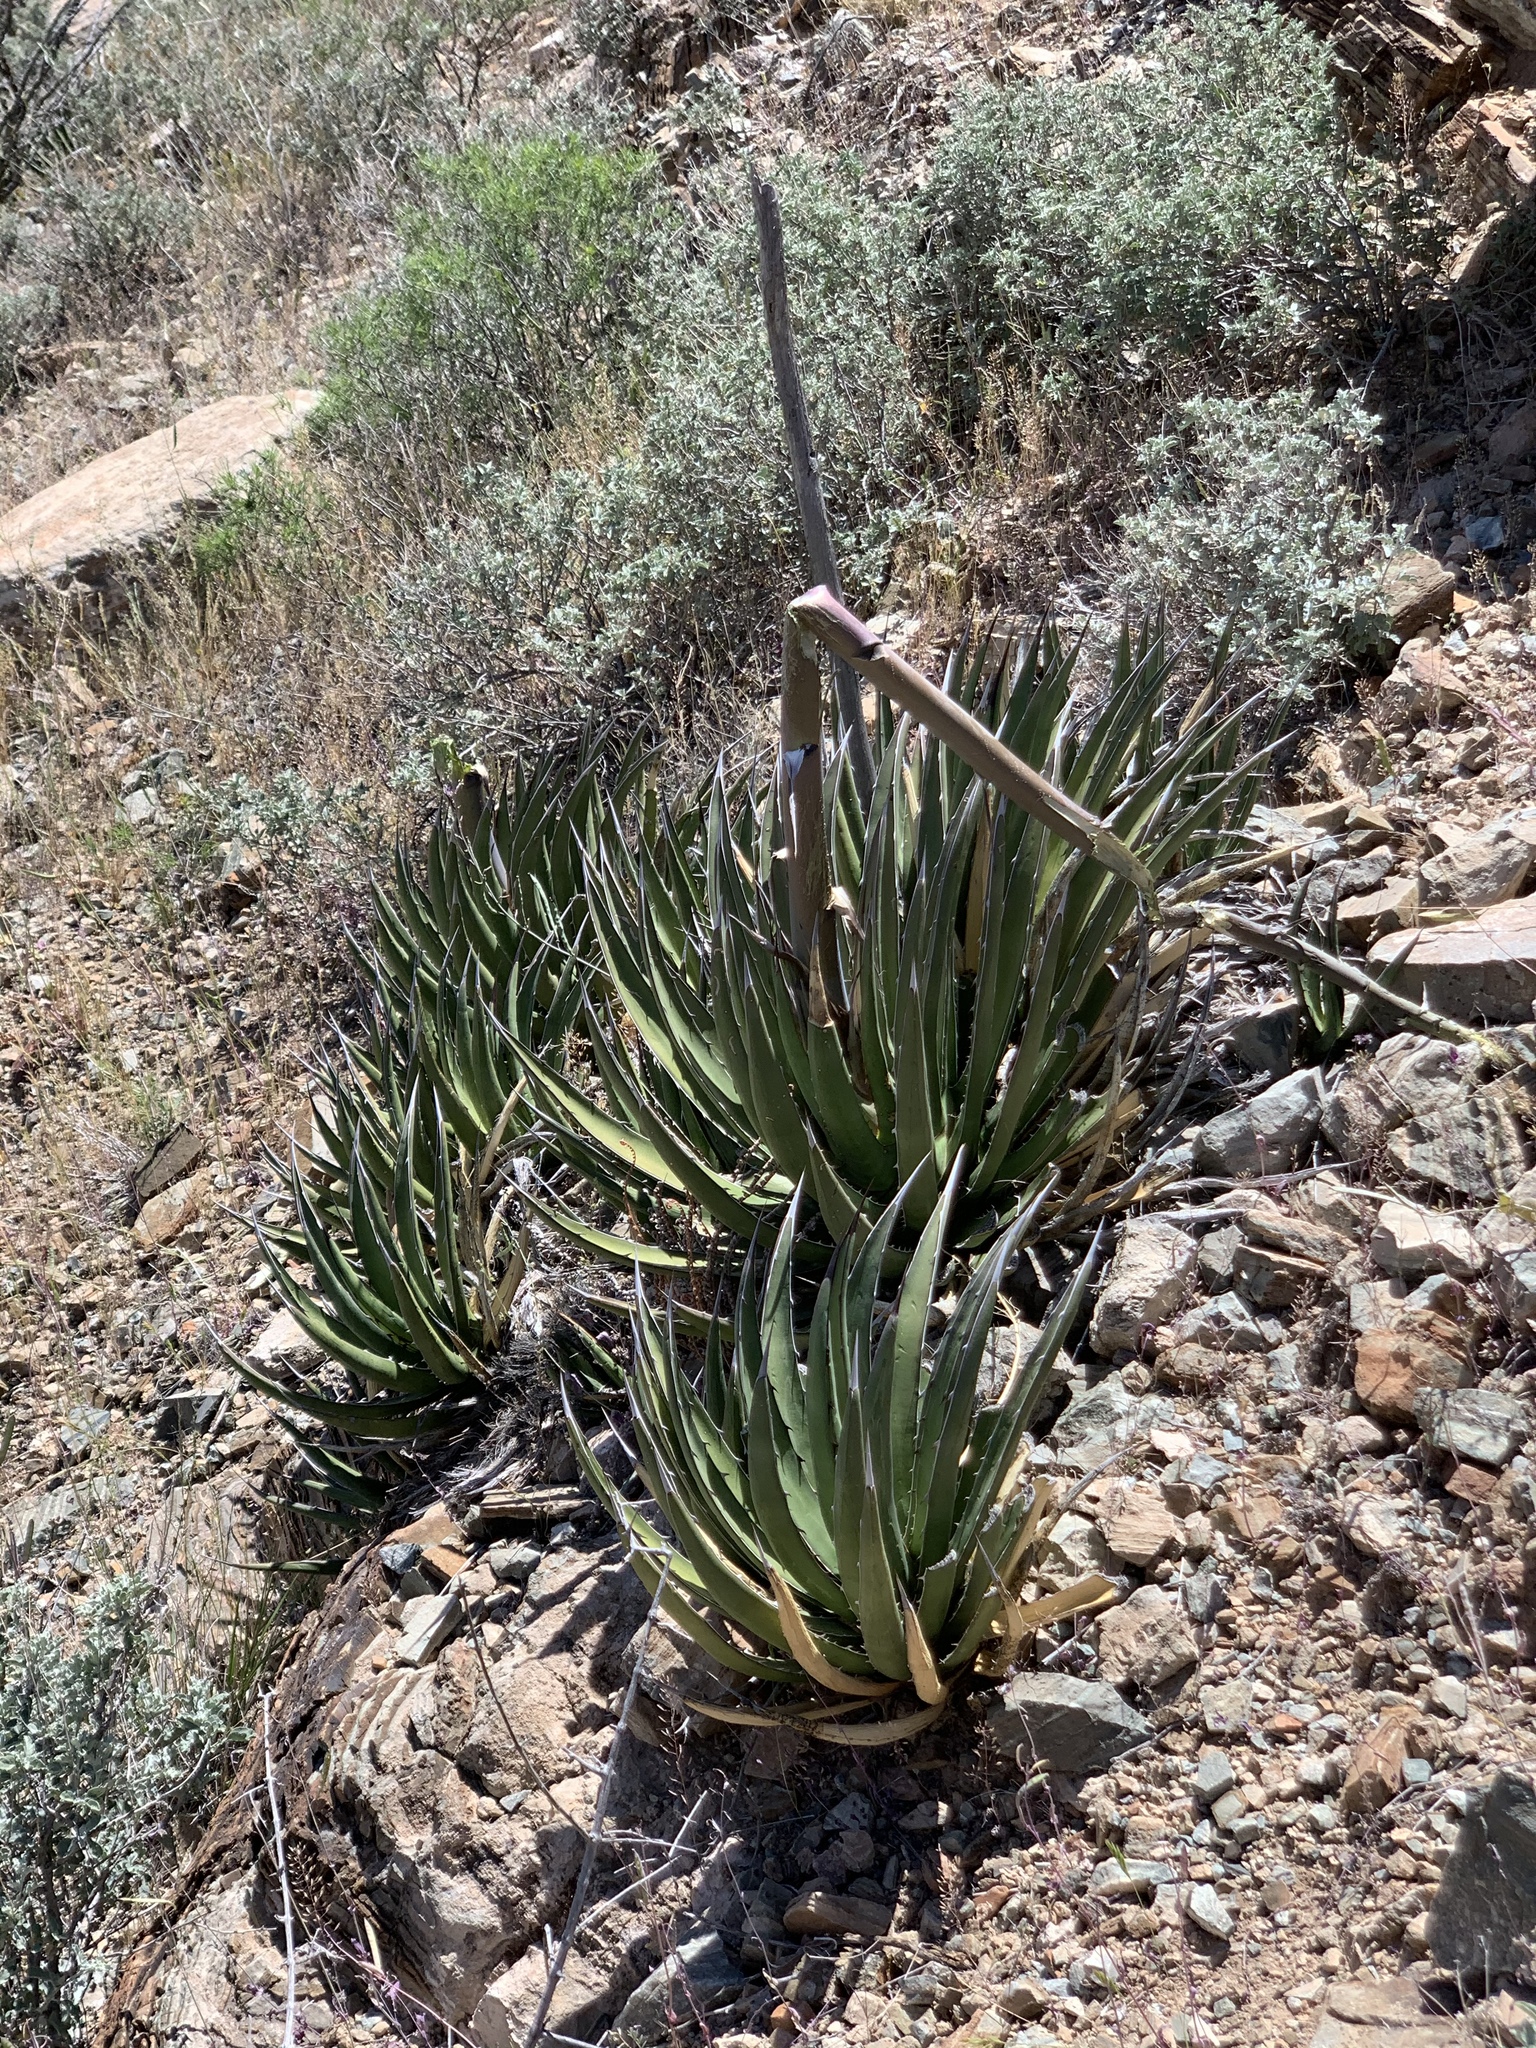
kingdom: Plantae
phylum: Tracheophyta
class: Liliopsida
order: Asparagales
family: Asparagaceae
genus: Agave
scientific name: Agave lechuguilla
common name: Lecheguilla agave
